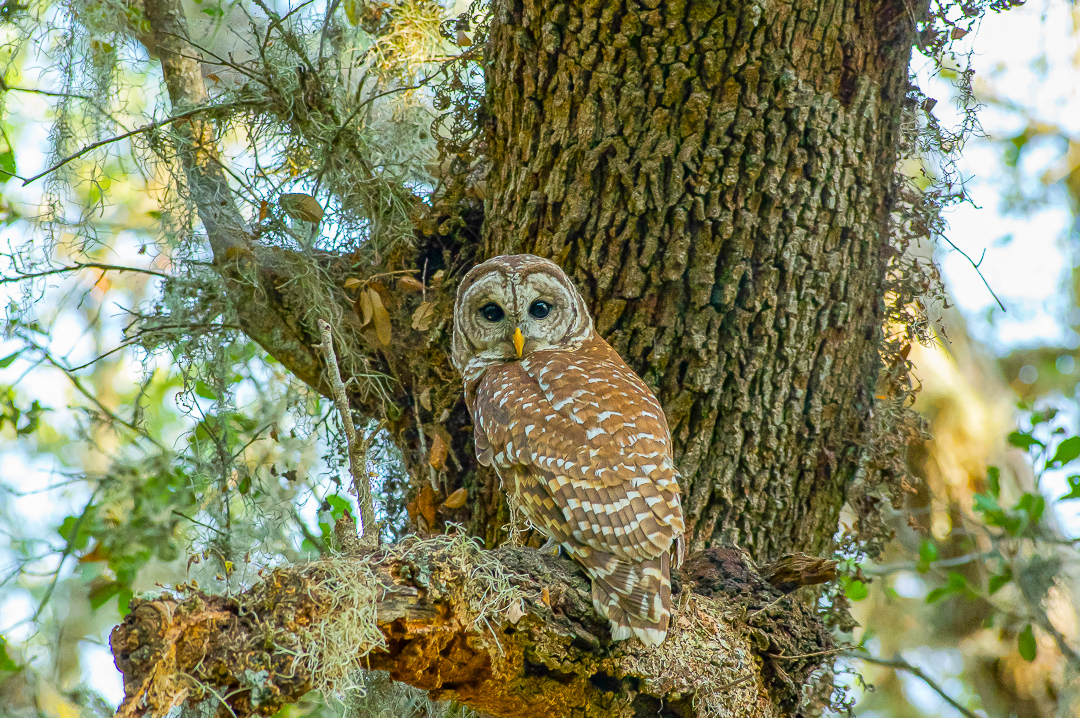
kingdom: Animalia
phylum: Chordata
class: Aves
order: Strigiformes
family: Strigidae
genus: Strix
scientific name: Strix varia
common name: Barred owl
